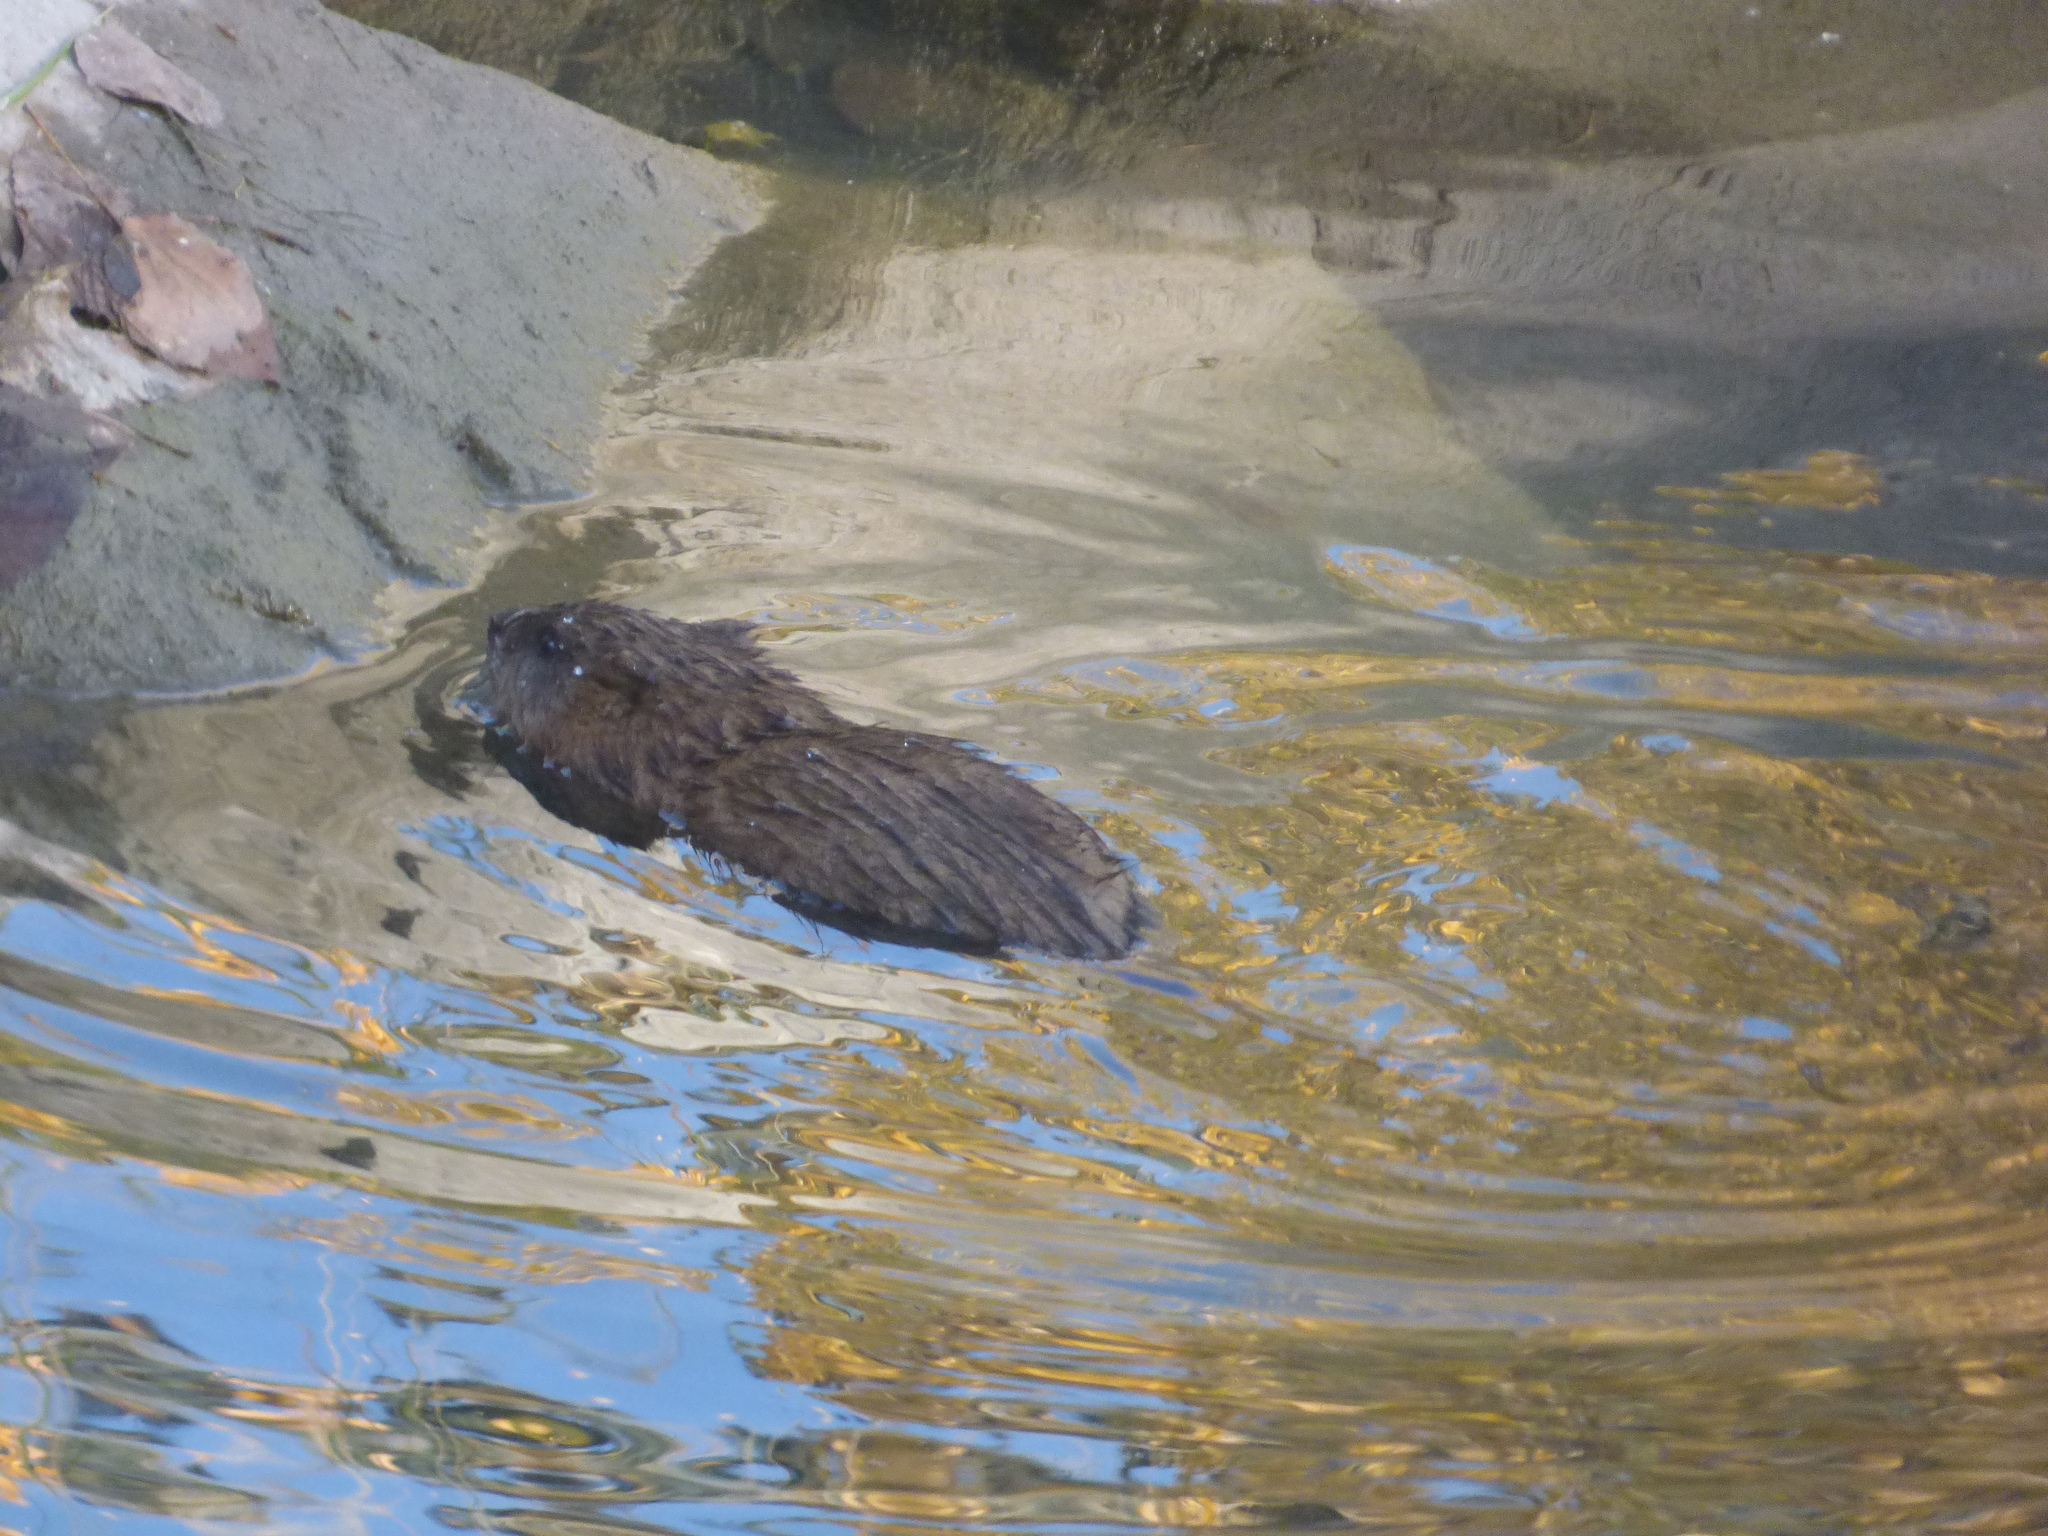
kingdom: Animalia
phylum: Chordata
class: Mammalia
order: Rodentia
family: Cricetidae
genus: Ondatra
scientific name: Ondatra zibethicus
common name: Muskrat
